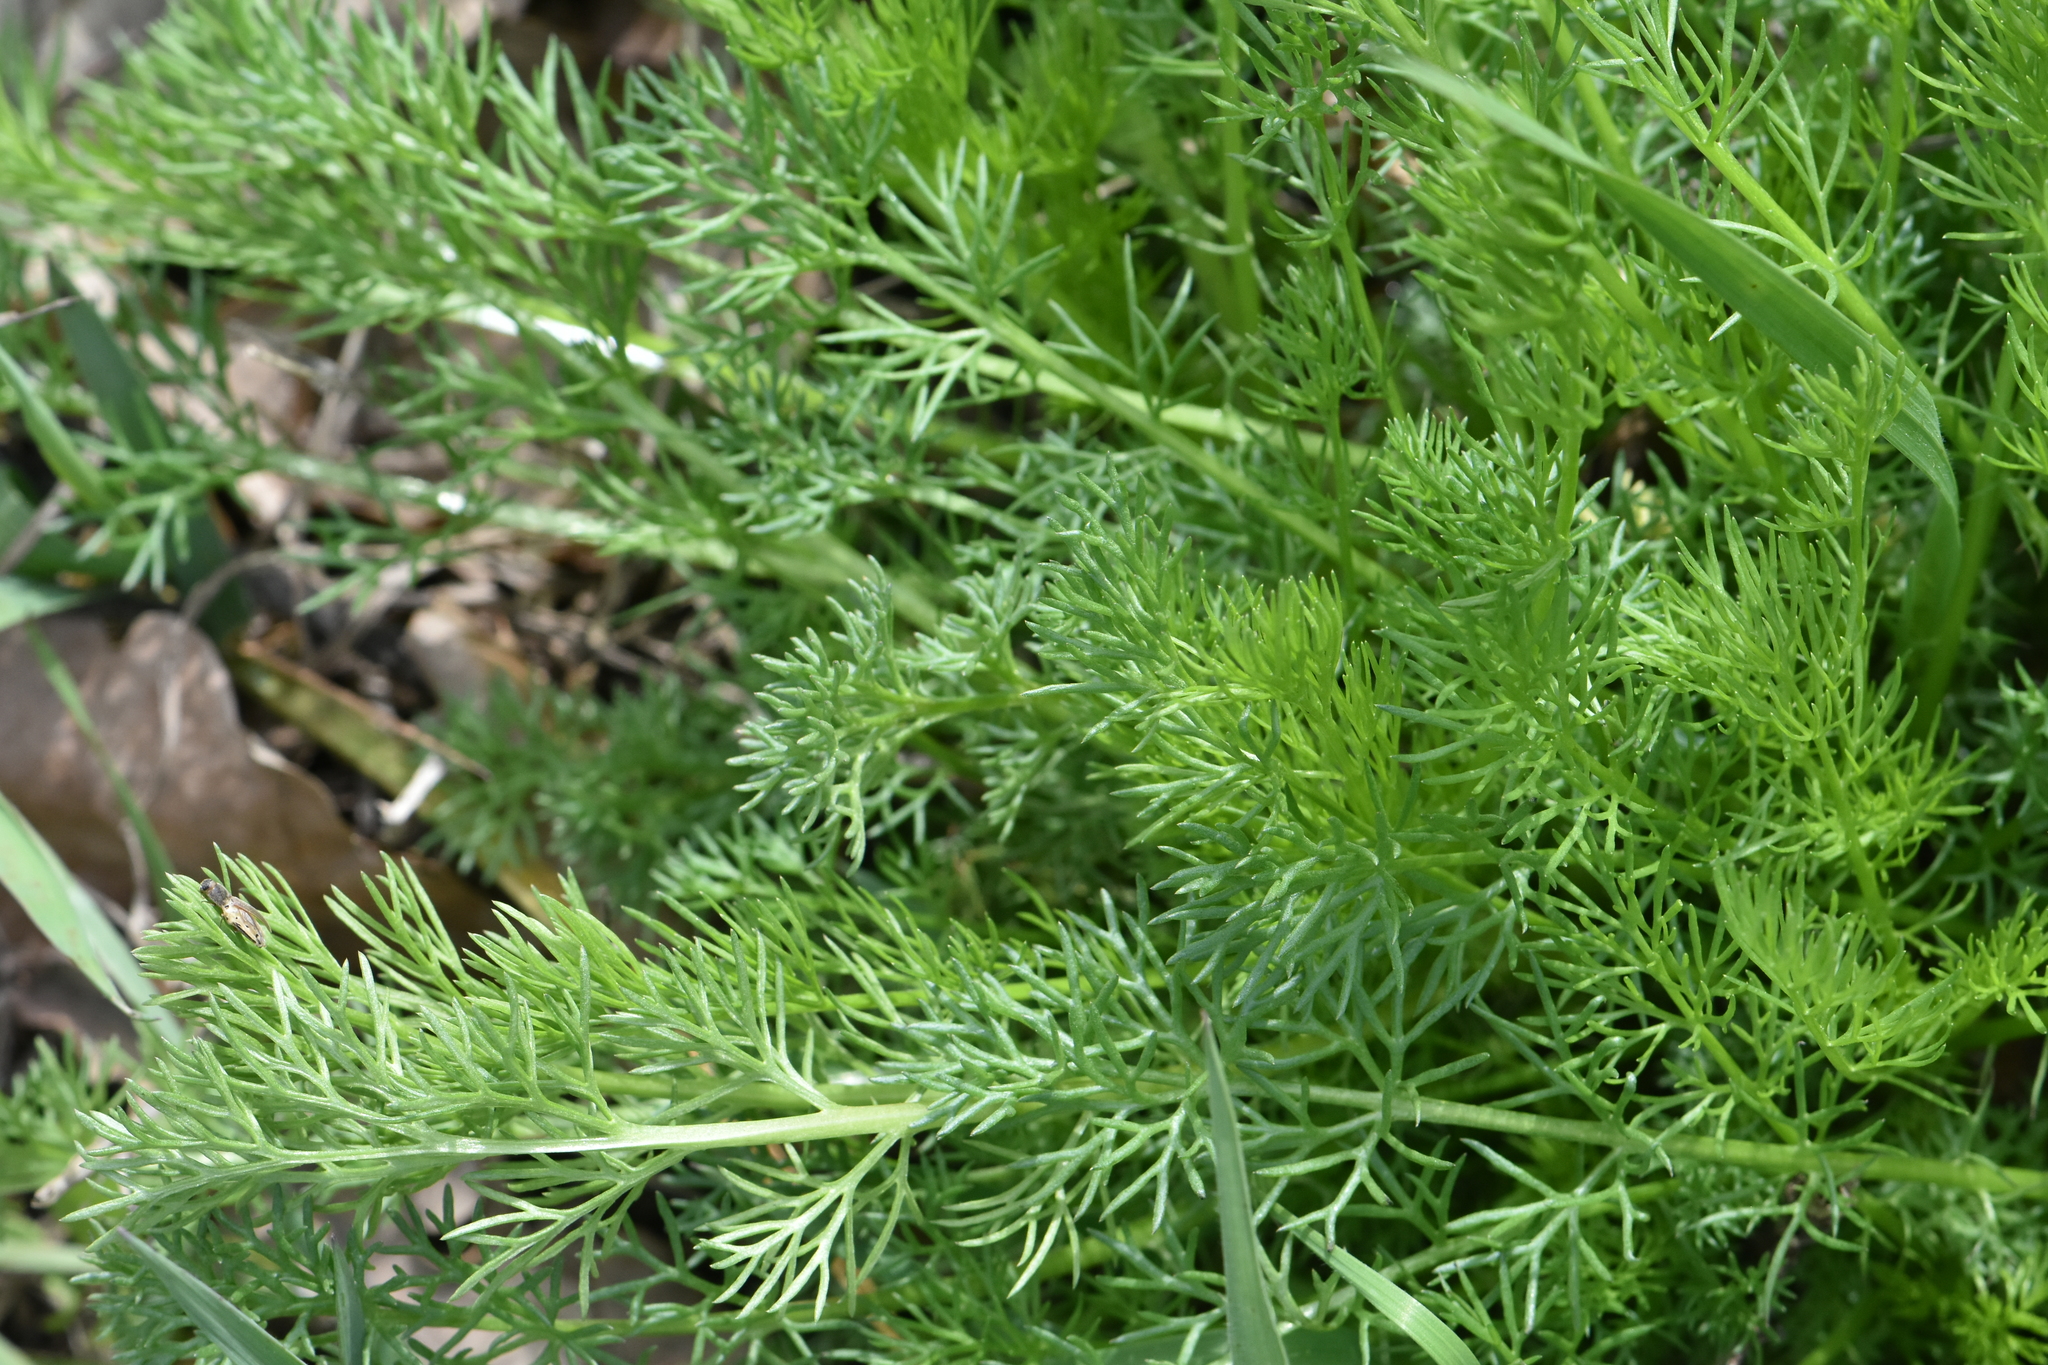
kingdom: Plantae
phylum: Tracheophyta
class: Magnoliopsida
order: Asterales
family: Asteraceae
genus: Tripleurospermum
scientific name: Tripleurospermum inodorum
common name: Scentless mayweed
